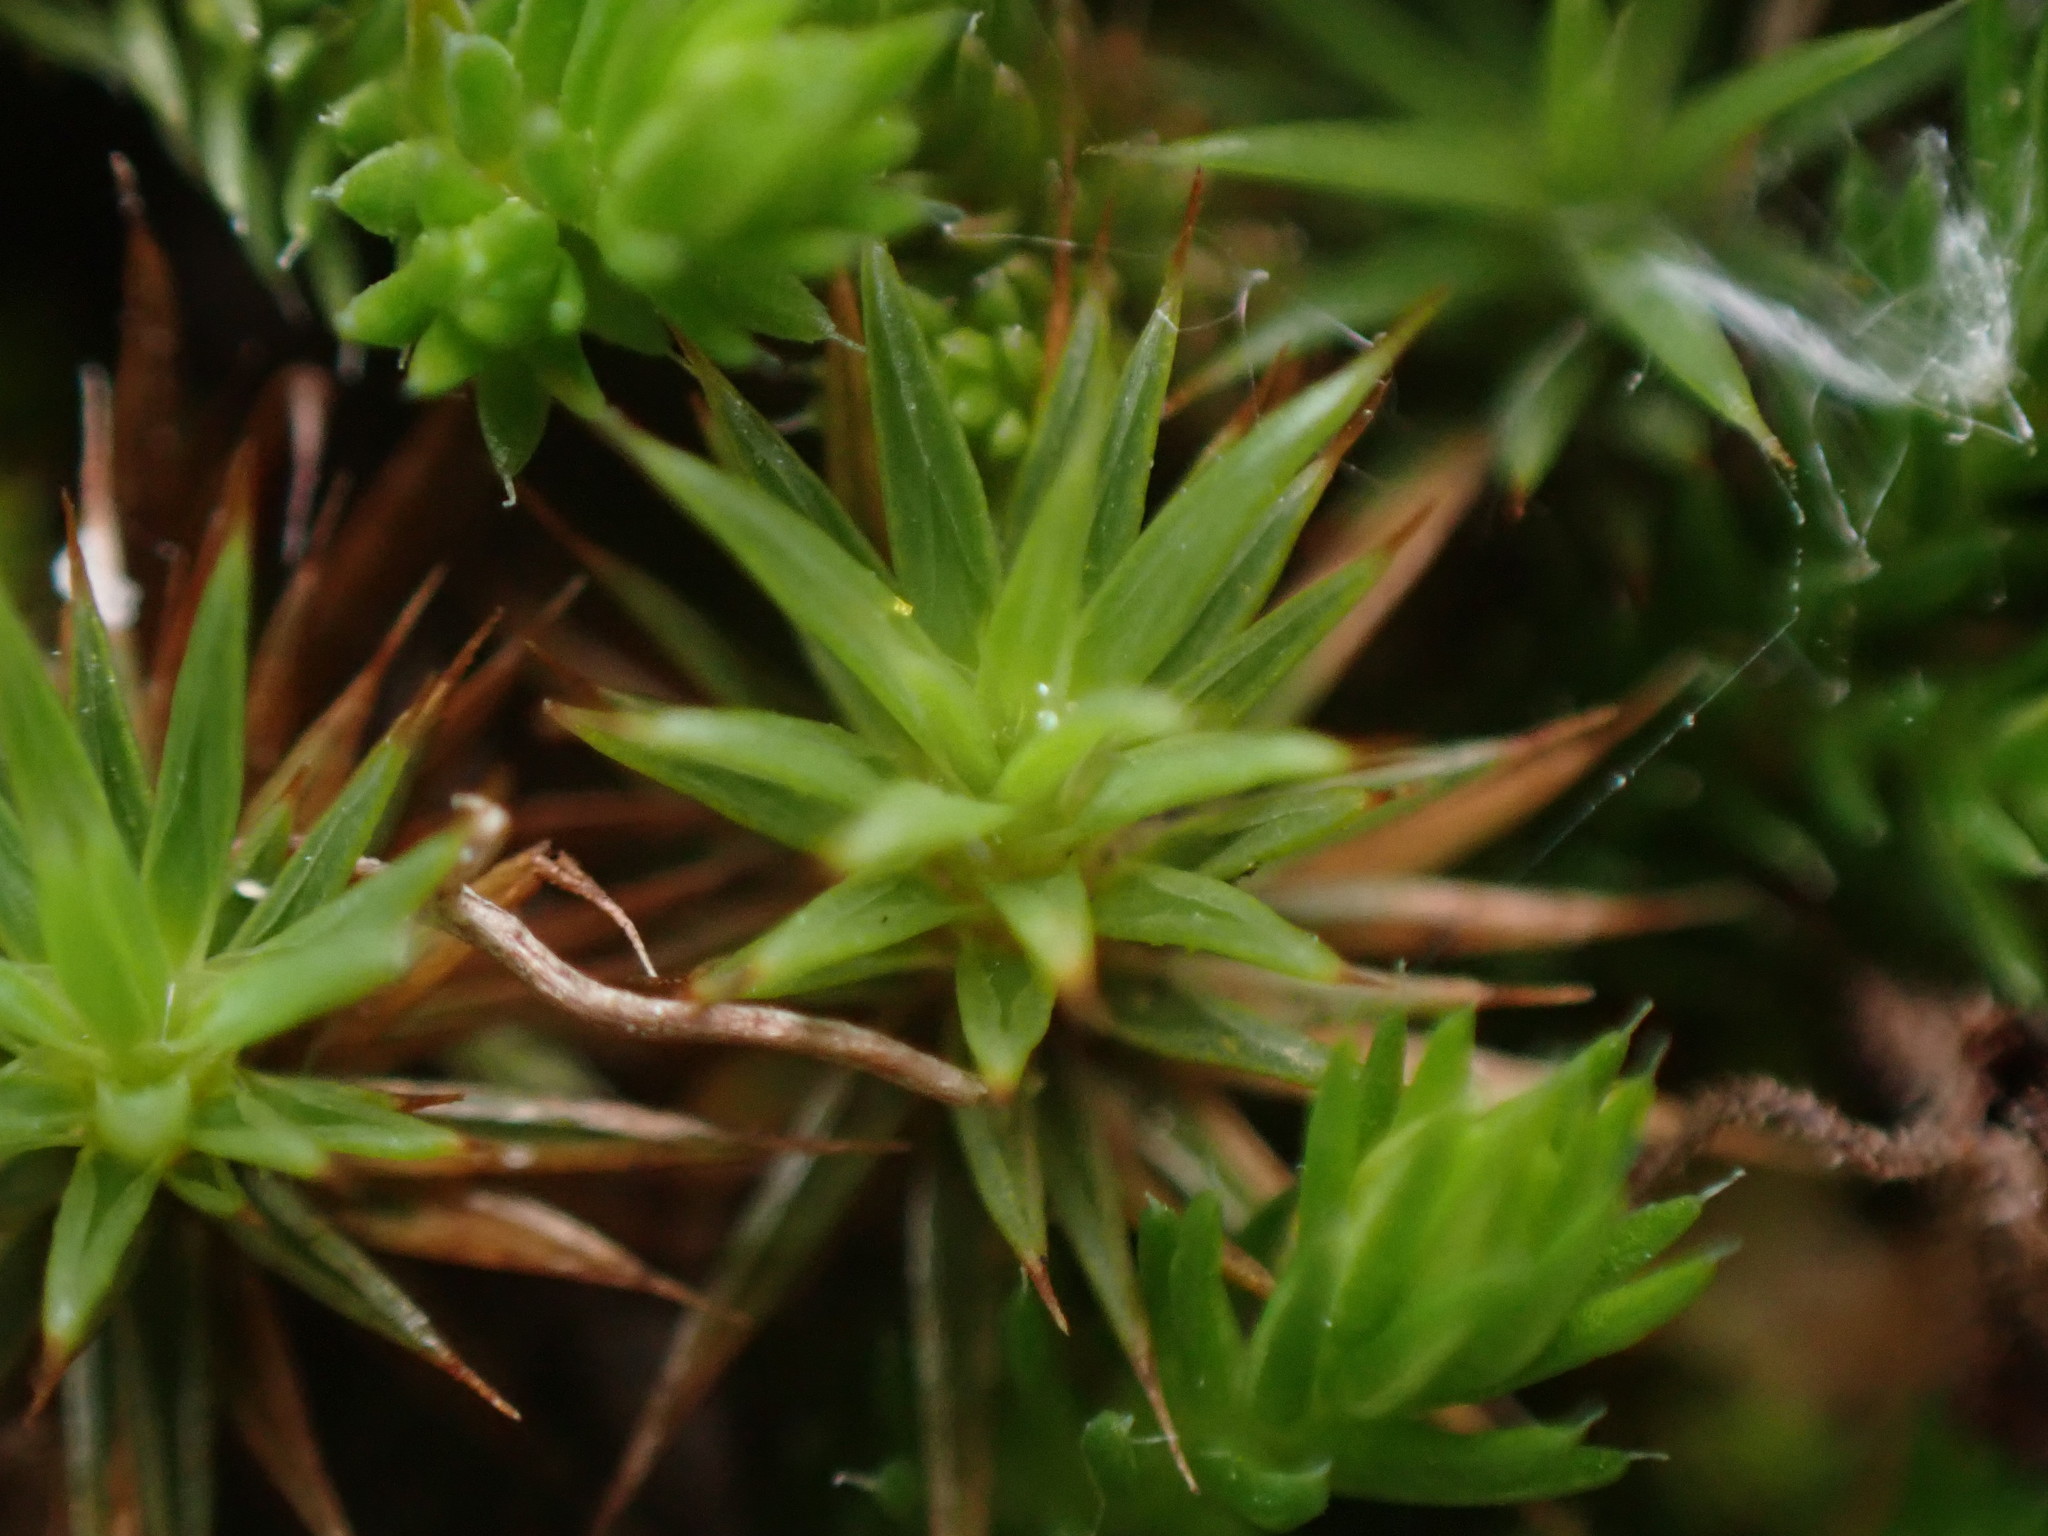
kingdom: Plantae
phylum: Bryophyta
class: Polytrichopsida
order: Polytrichales
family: Polytrichaceae
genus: Polytrichum
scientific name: Polytrichum juniperinum
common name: Juniper haircap moss
